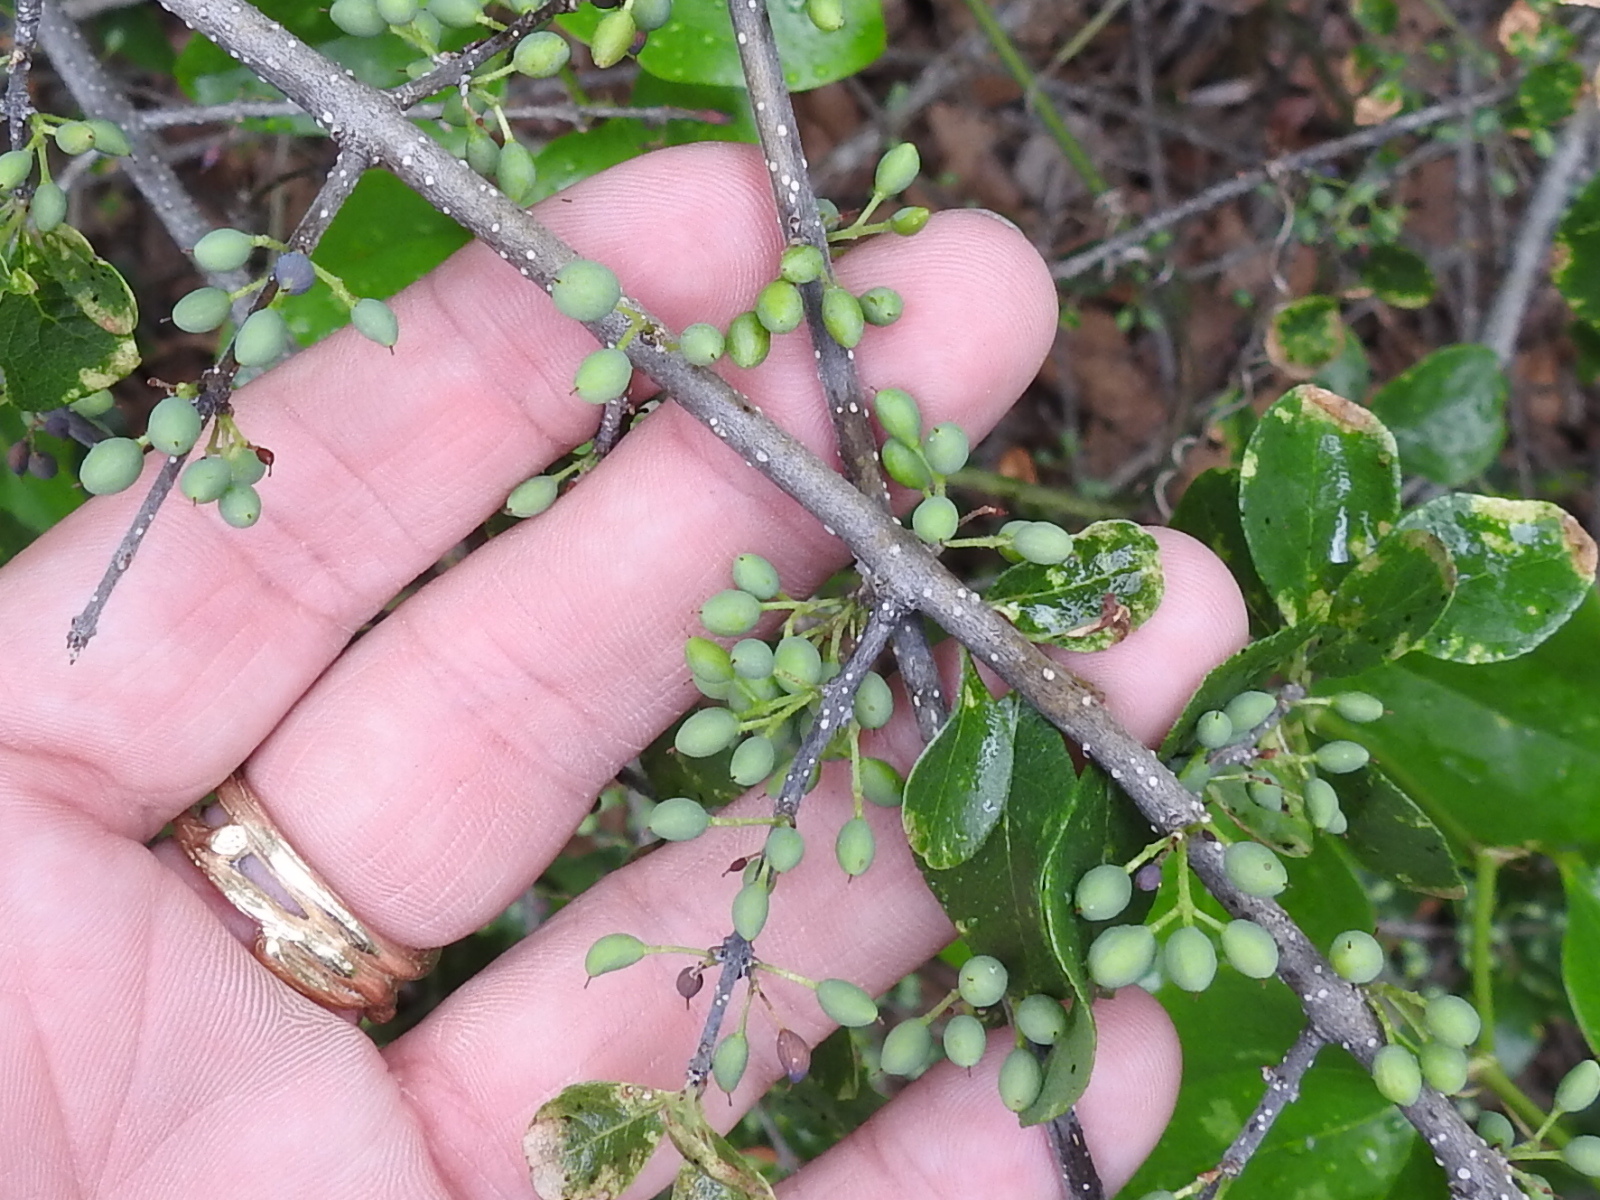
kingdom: Plantae
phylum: Tracheophyta
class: Magnoliopsida
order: Lamiales
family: Oleaceae
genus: Forestiera
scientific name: Forestiera pubescens
